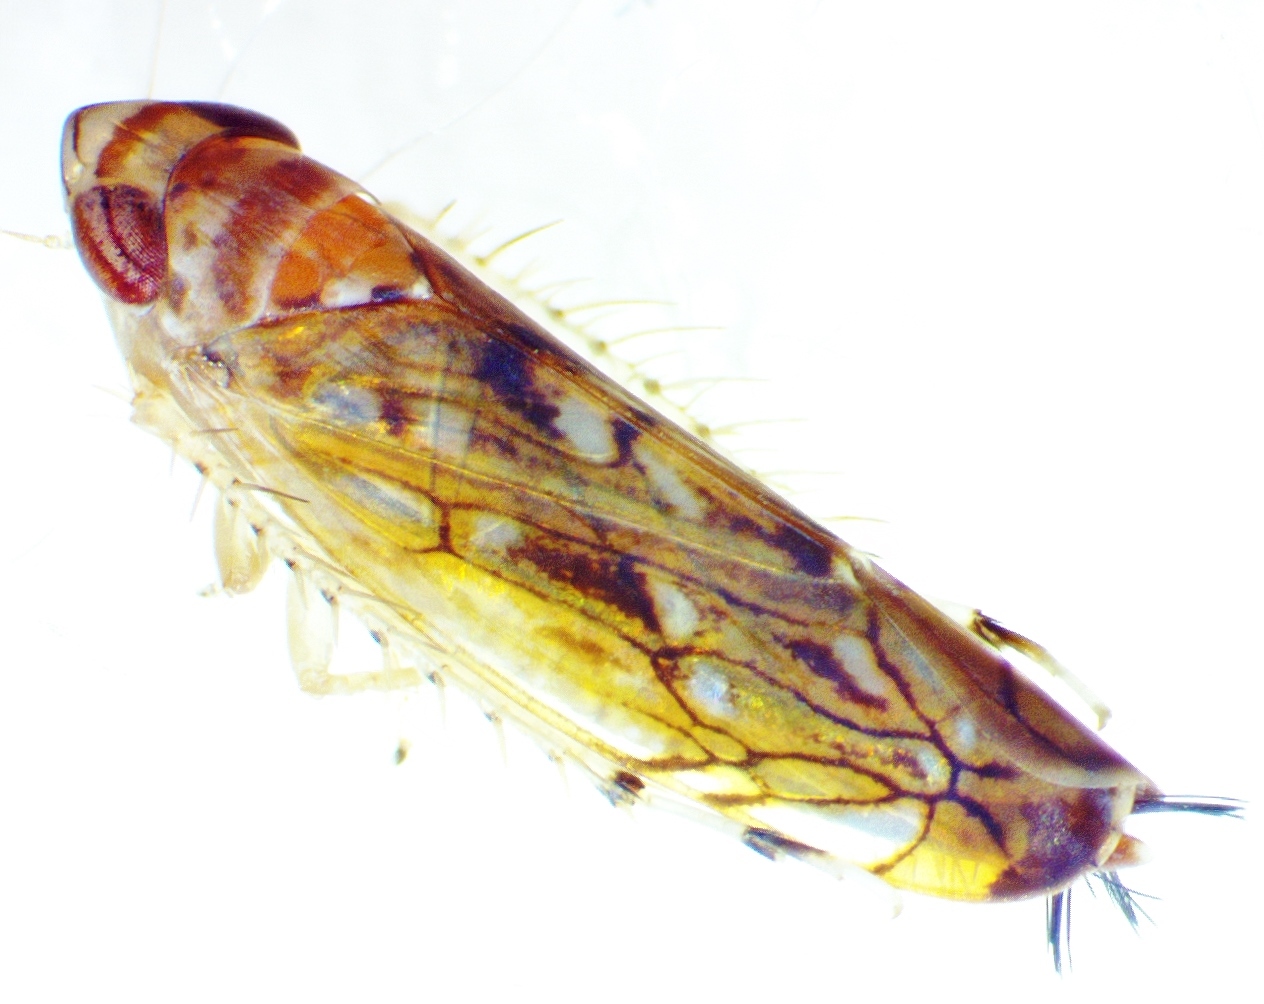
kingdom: Animalia
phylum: Arthropoda
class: Insecta
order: Hemiptera
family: Cicadellidae
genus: Scaphoideus
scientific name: Scaphoideus crassus
